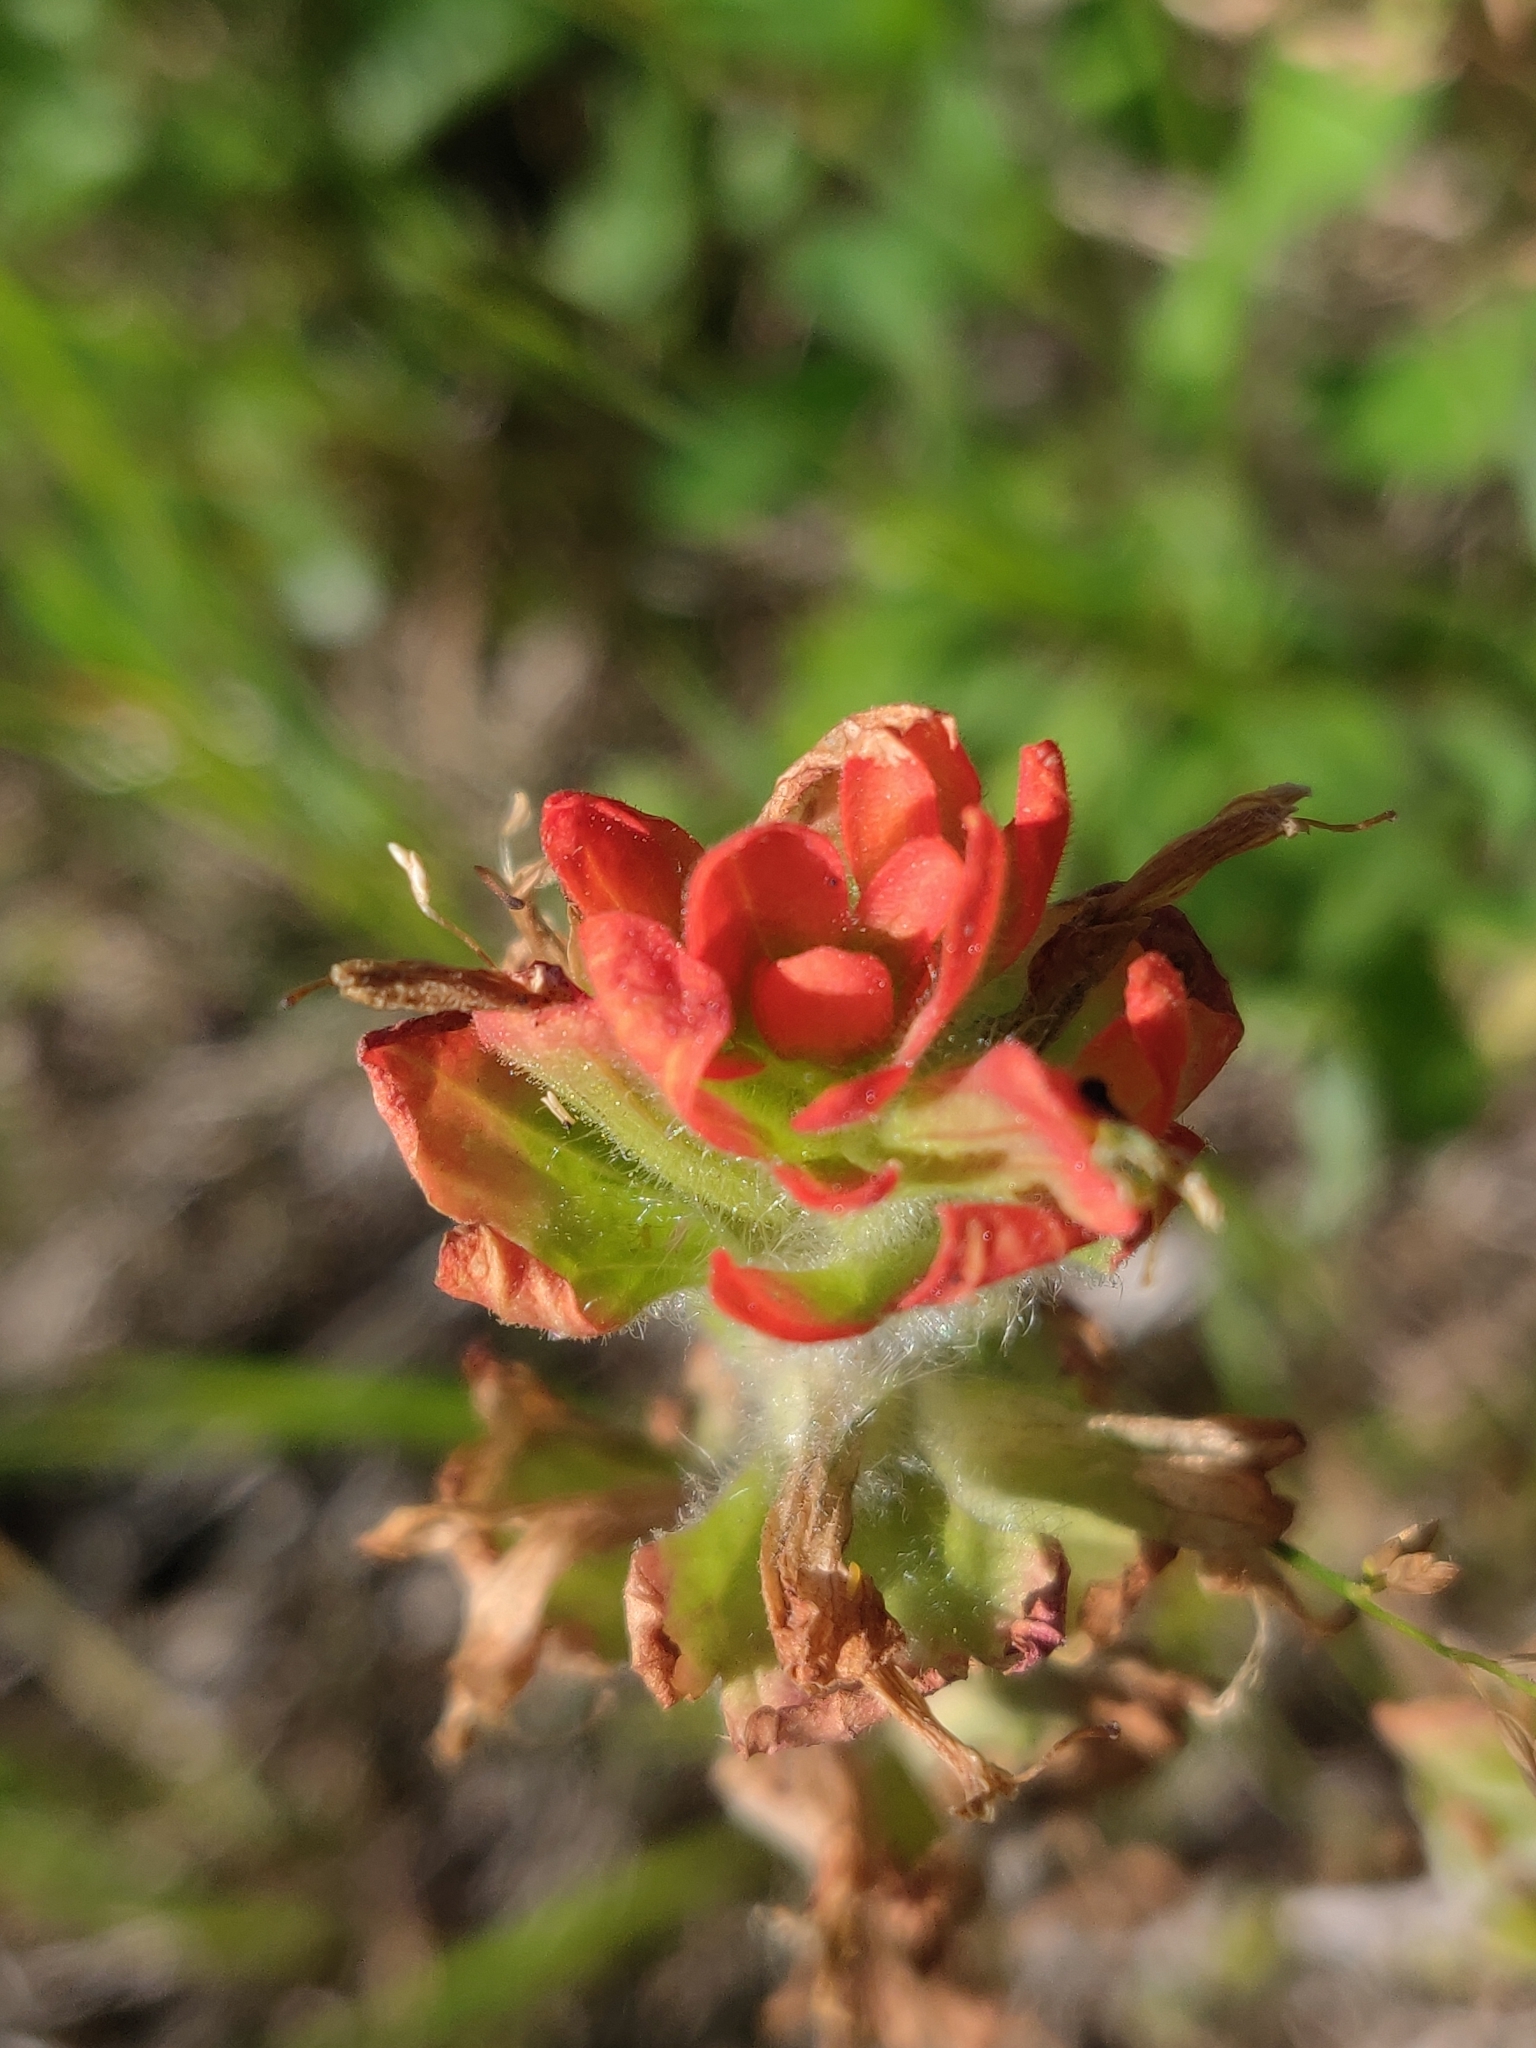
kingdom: Plantae
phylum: Tracheophyta
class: Magnoliopsida
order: Lamiales
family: Orobanchaceae
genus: Castilleja
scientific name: Castilleja coccinea
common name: Scarlet paintbrush
